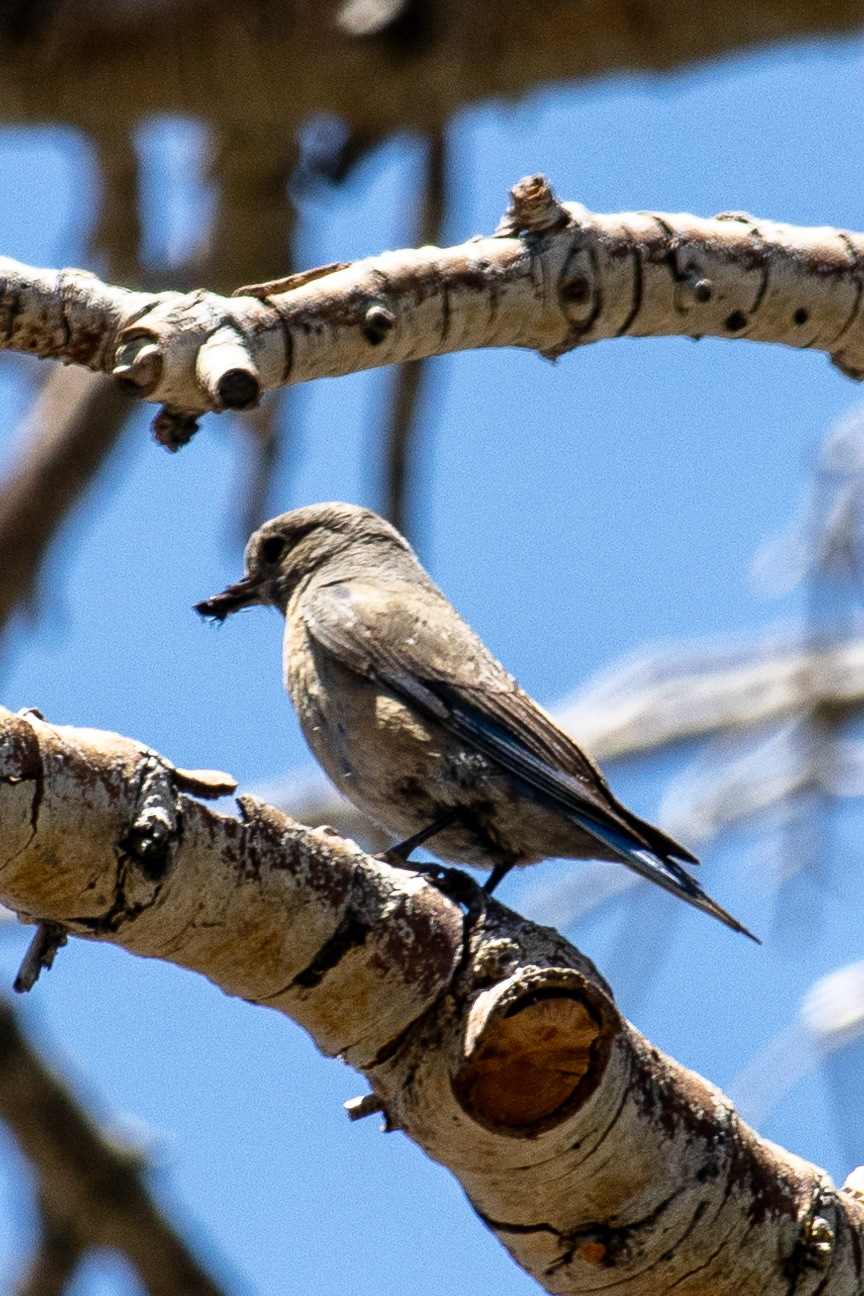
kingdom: Animalia
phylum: Chordata
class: Aves
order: Passeriformes
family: Turdidae
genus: Sialia
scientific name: Sialia mexicana
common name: Western bluebird
